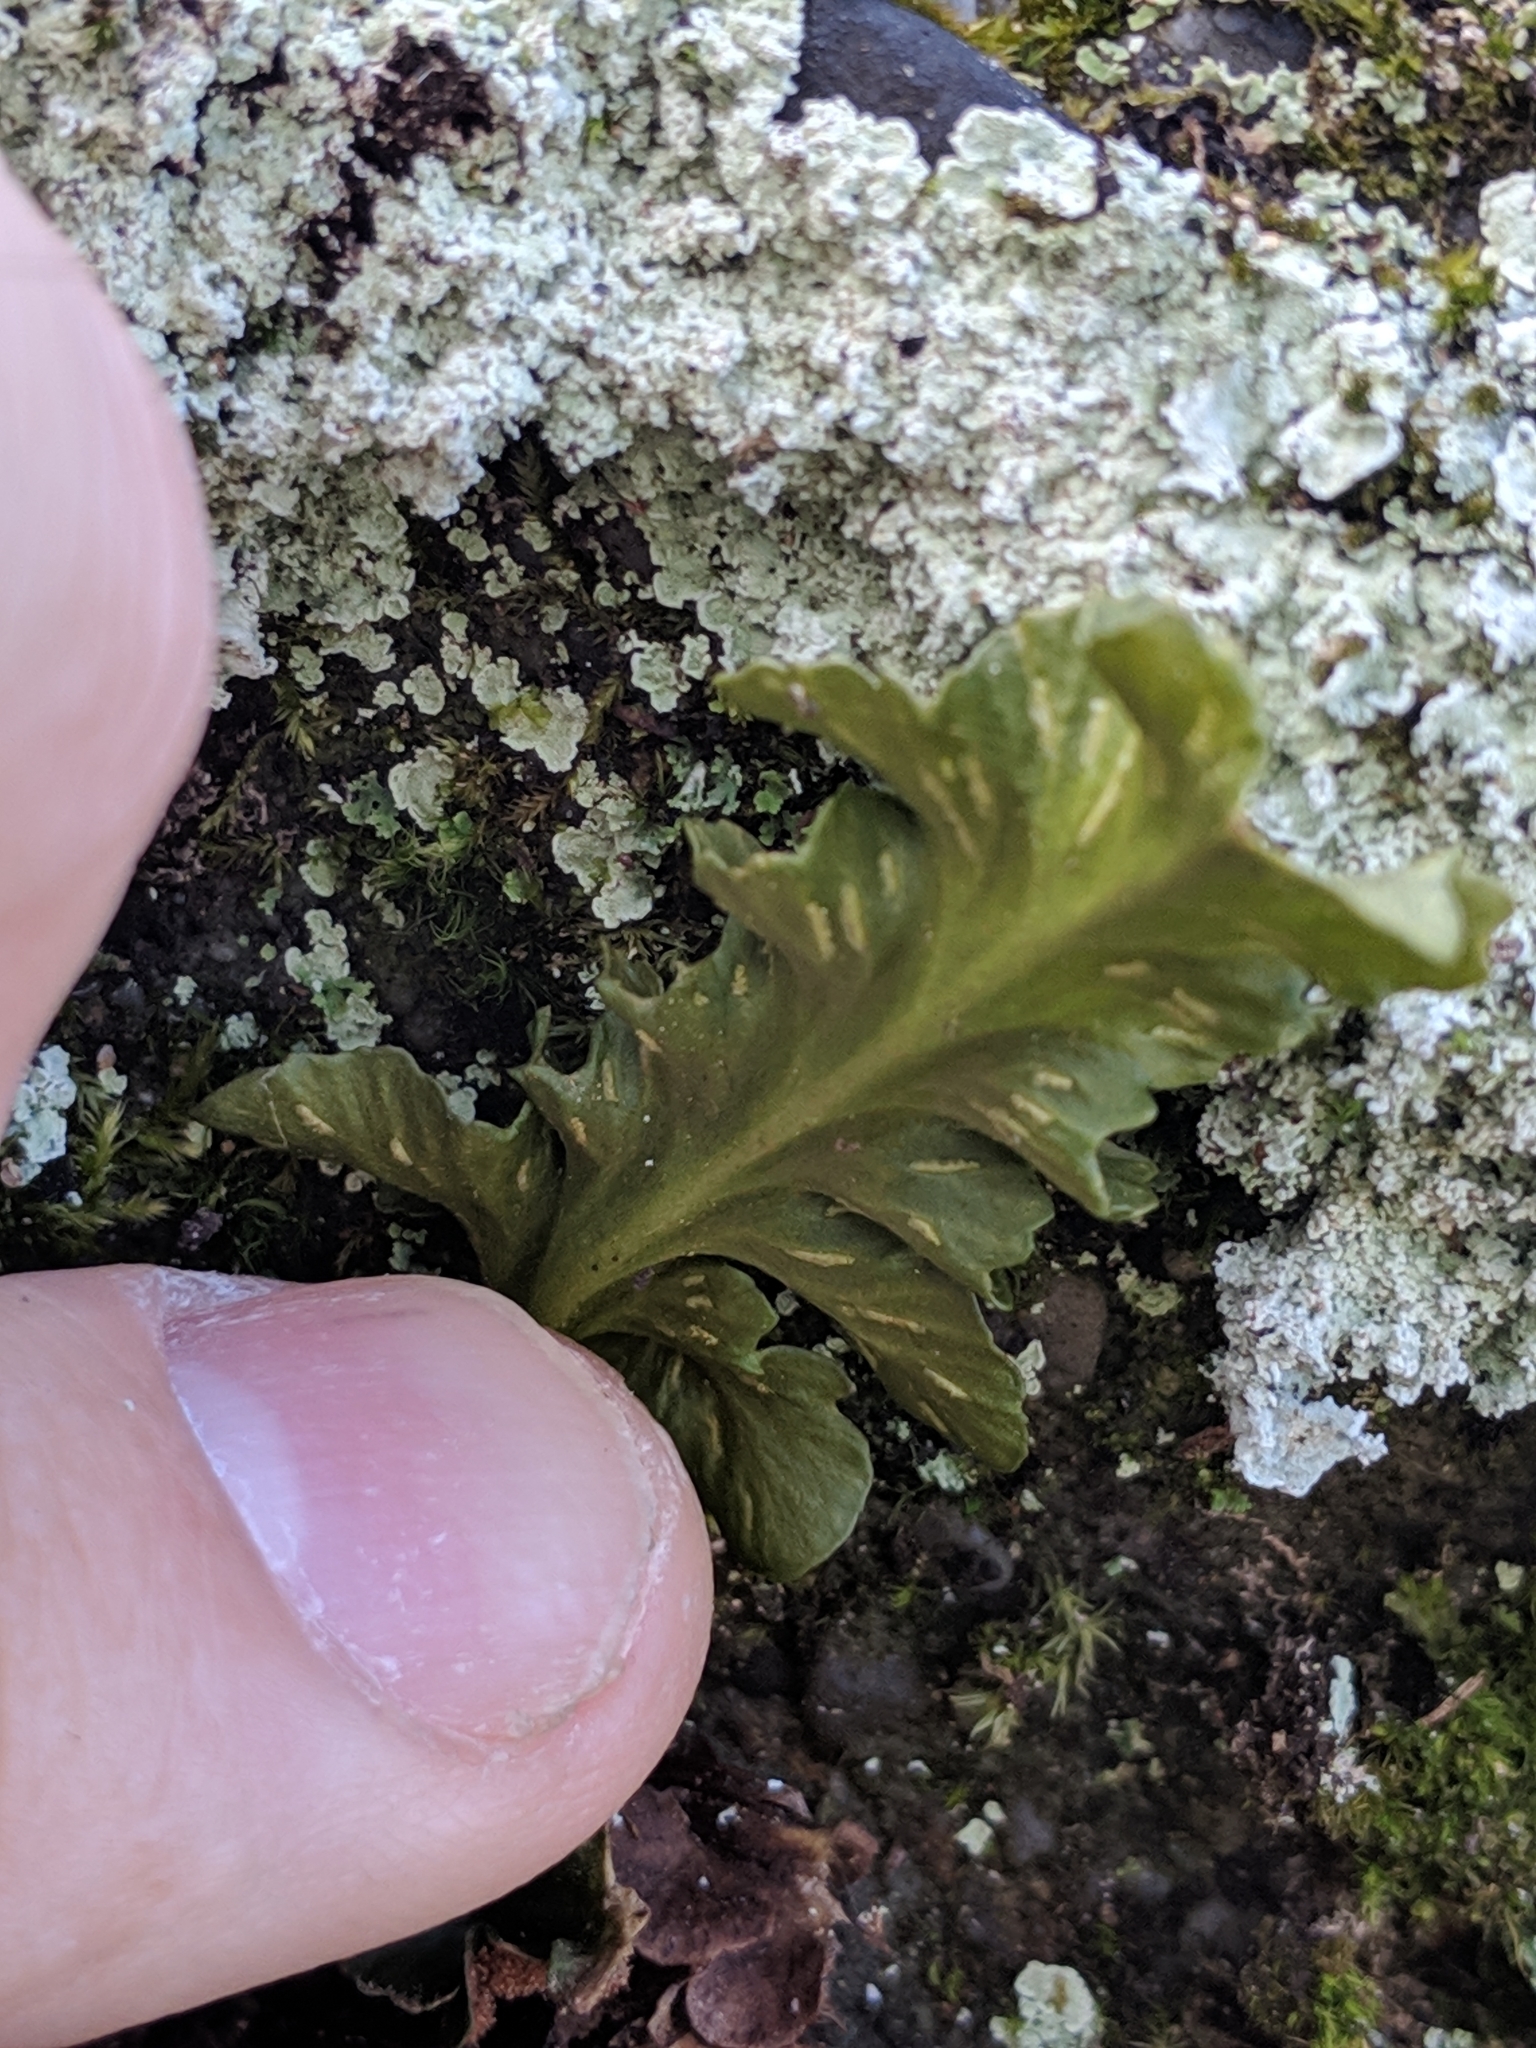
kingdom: Plantae
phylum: Tracheophyta
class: Polypodiopsida
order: Polypodiales
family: Aspleniaceae
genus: Asplenium
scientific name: Asplenium pinnatifidum
